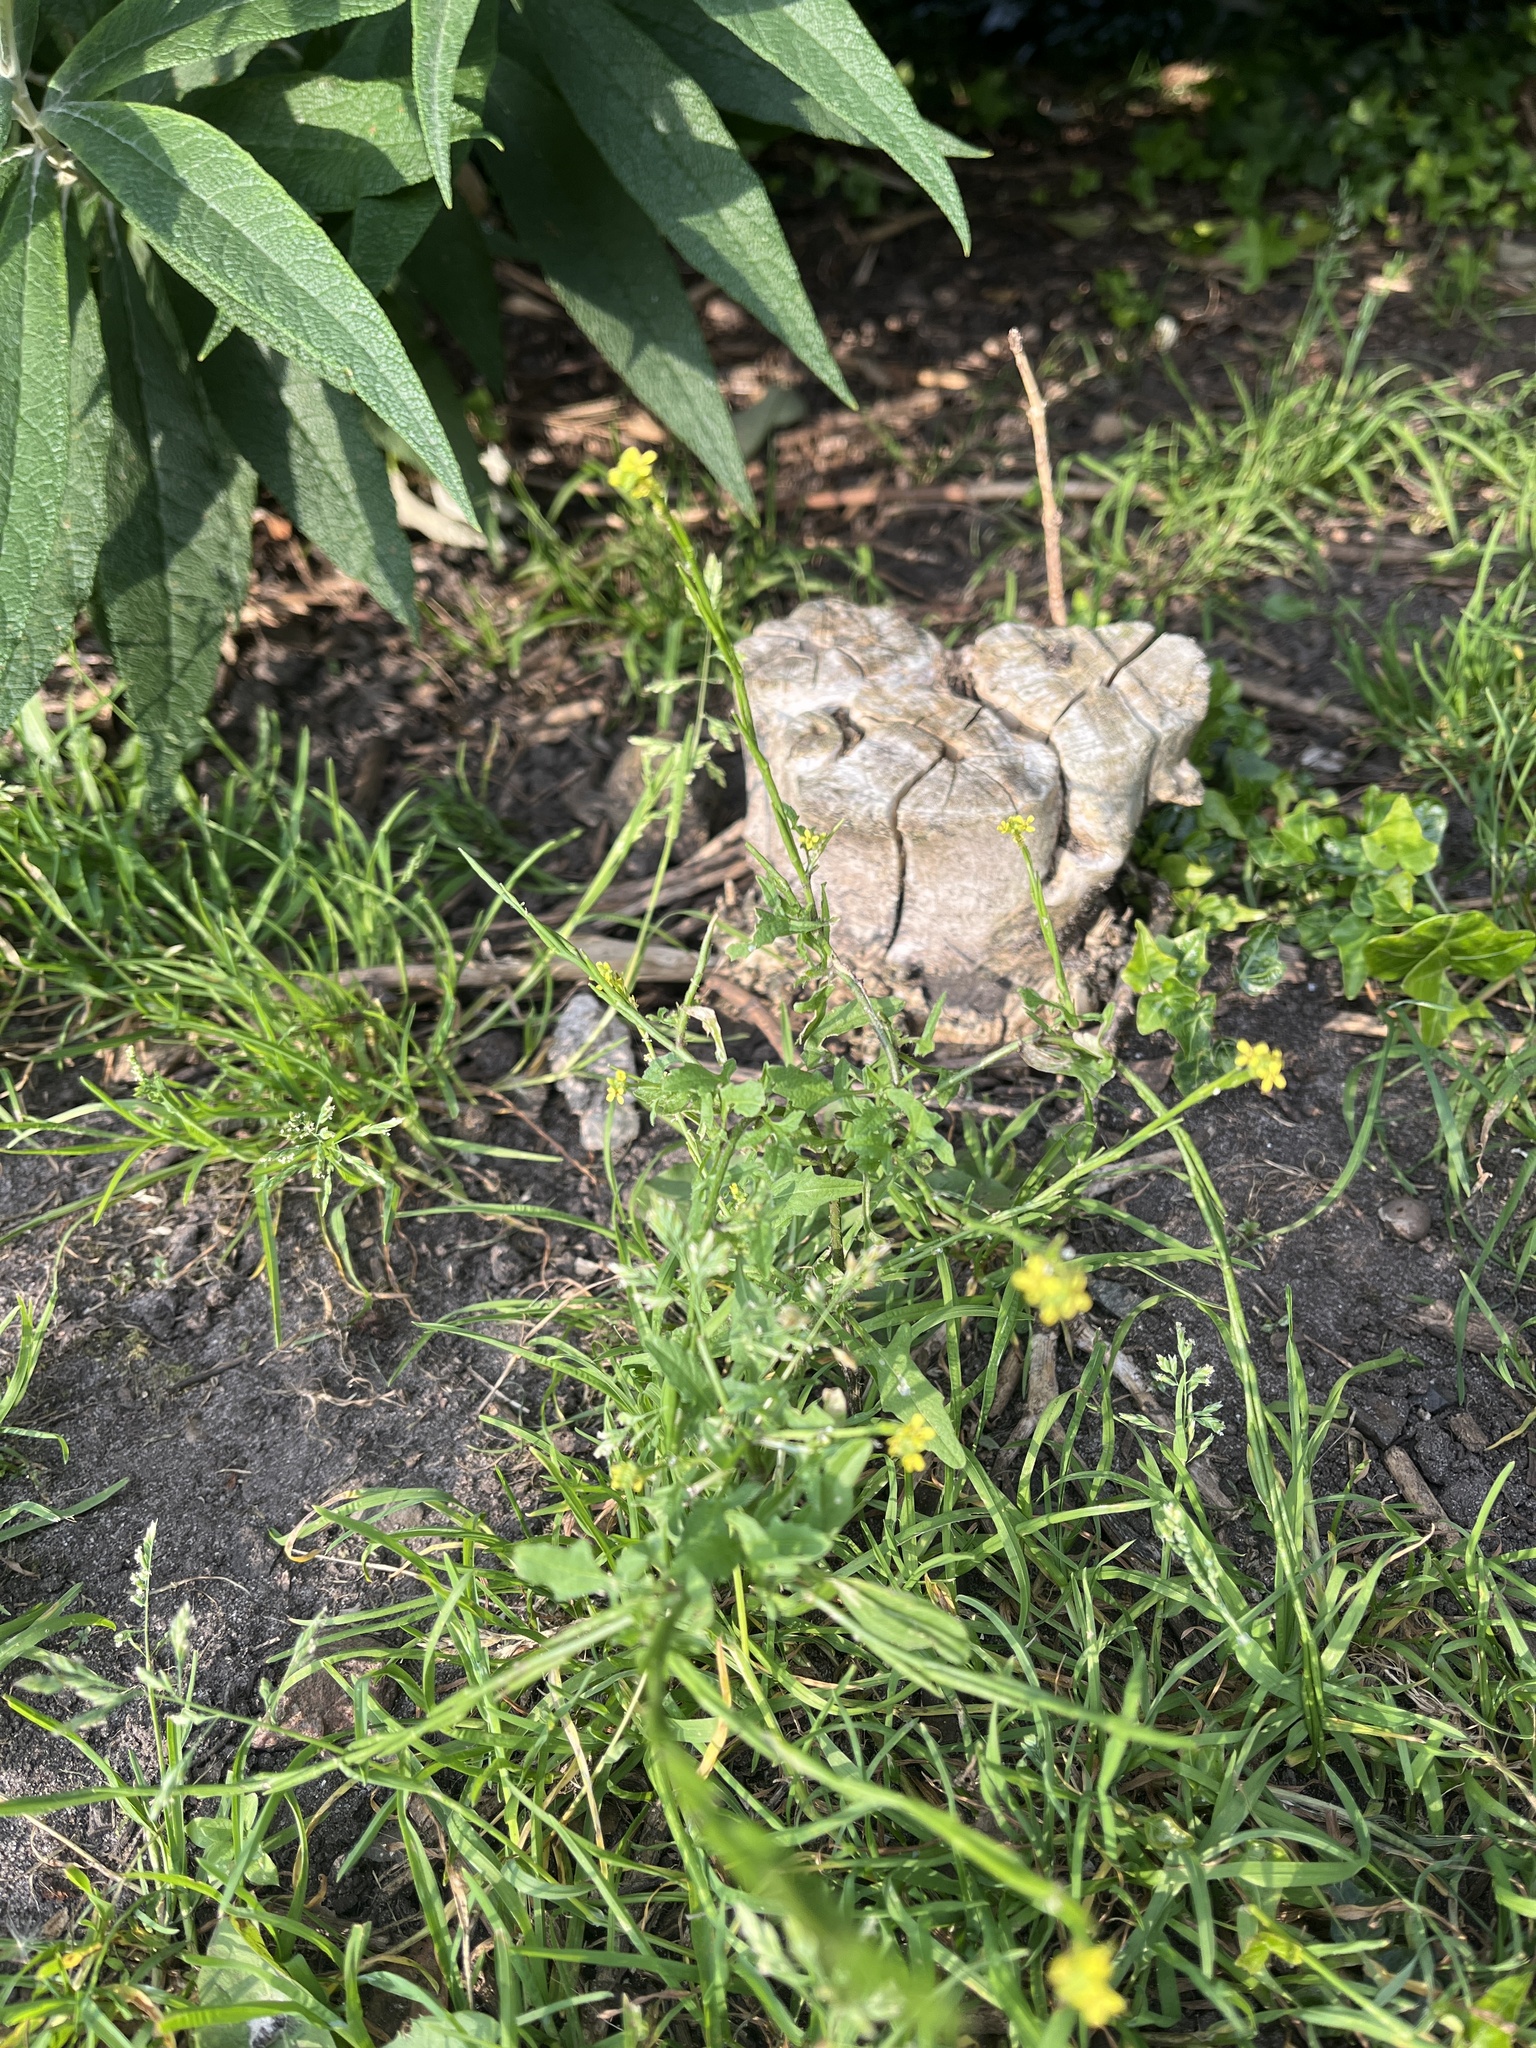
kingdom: Plantae
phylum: Tracheophyta
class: Magnoliopsida
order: Brassicales
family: Brassicaceae
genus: Sisymbrium
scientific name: Sisymbrium officinale
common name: Hedge mustard
